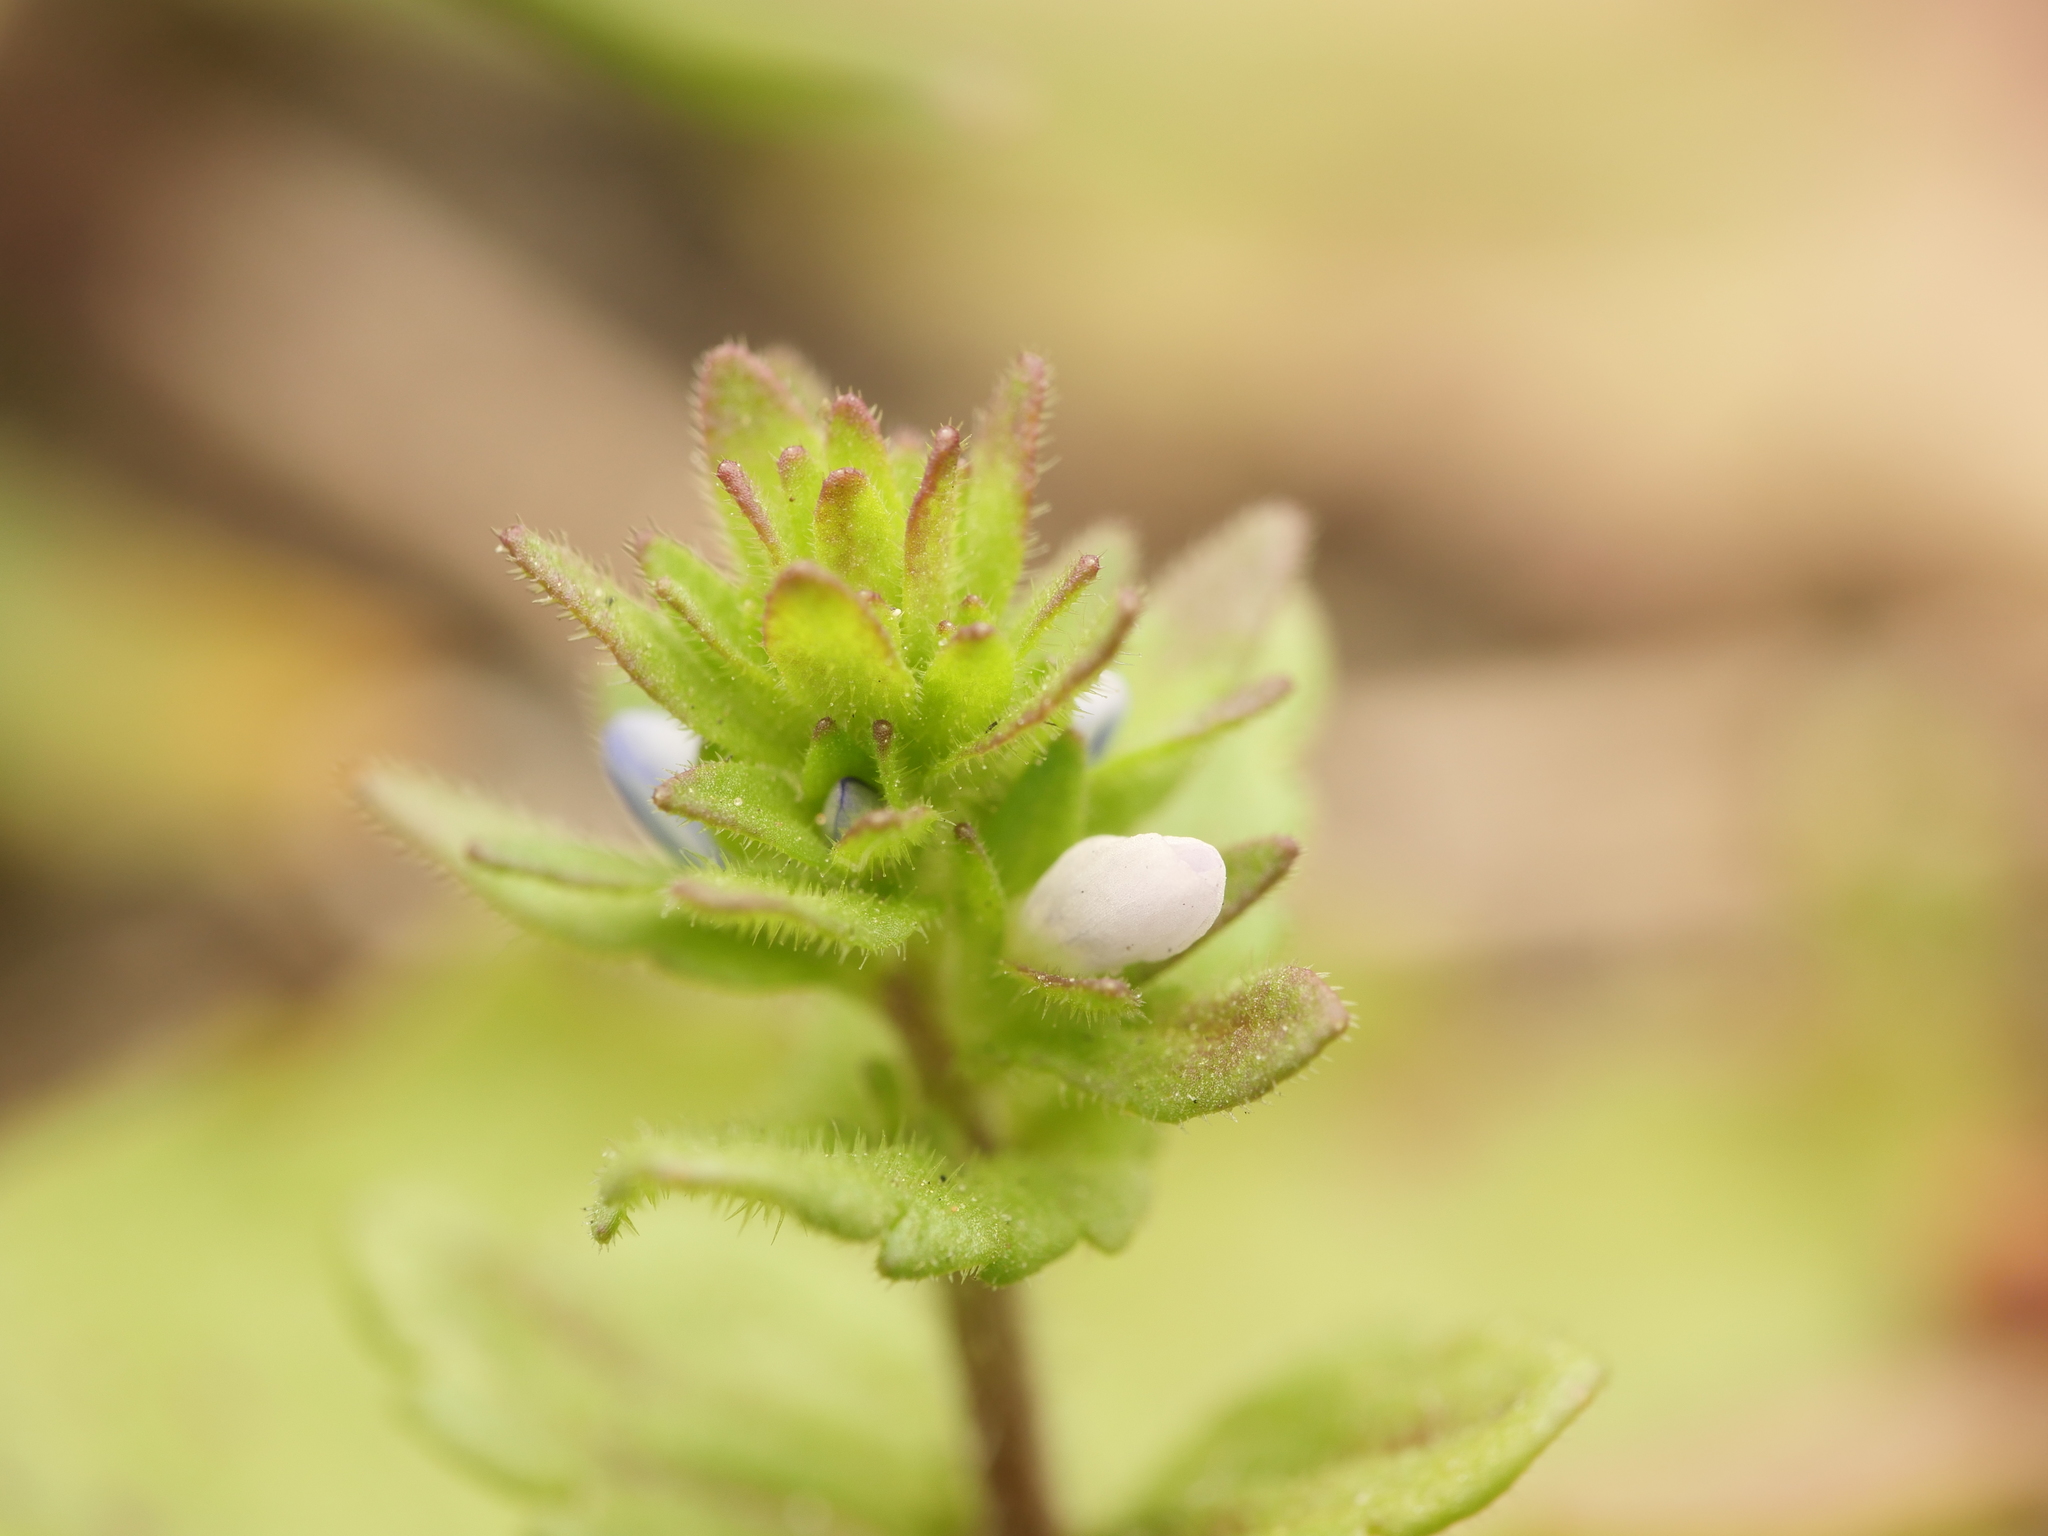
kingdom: Plantae
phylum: Tracheophyta
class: Magnoliopsida
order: Lamiales
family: Plantaginaceae
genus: Veronica
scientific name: Veronica arvensis
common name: Corn speedwell
